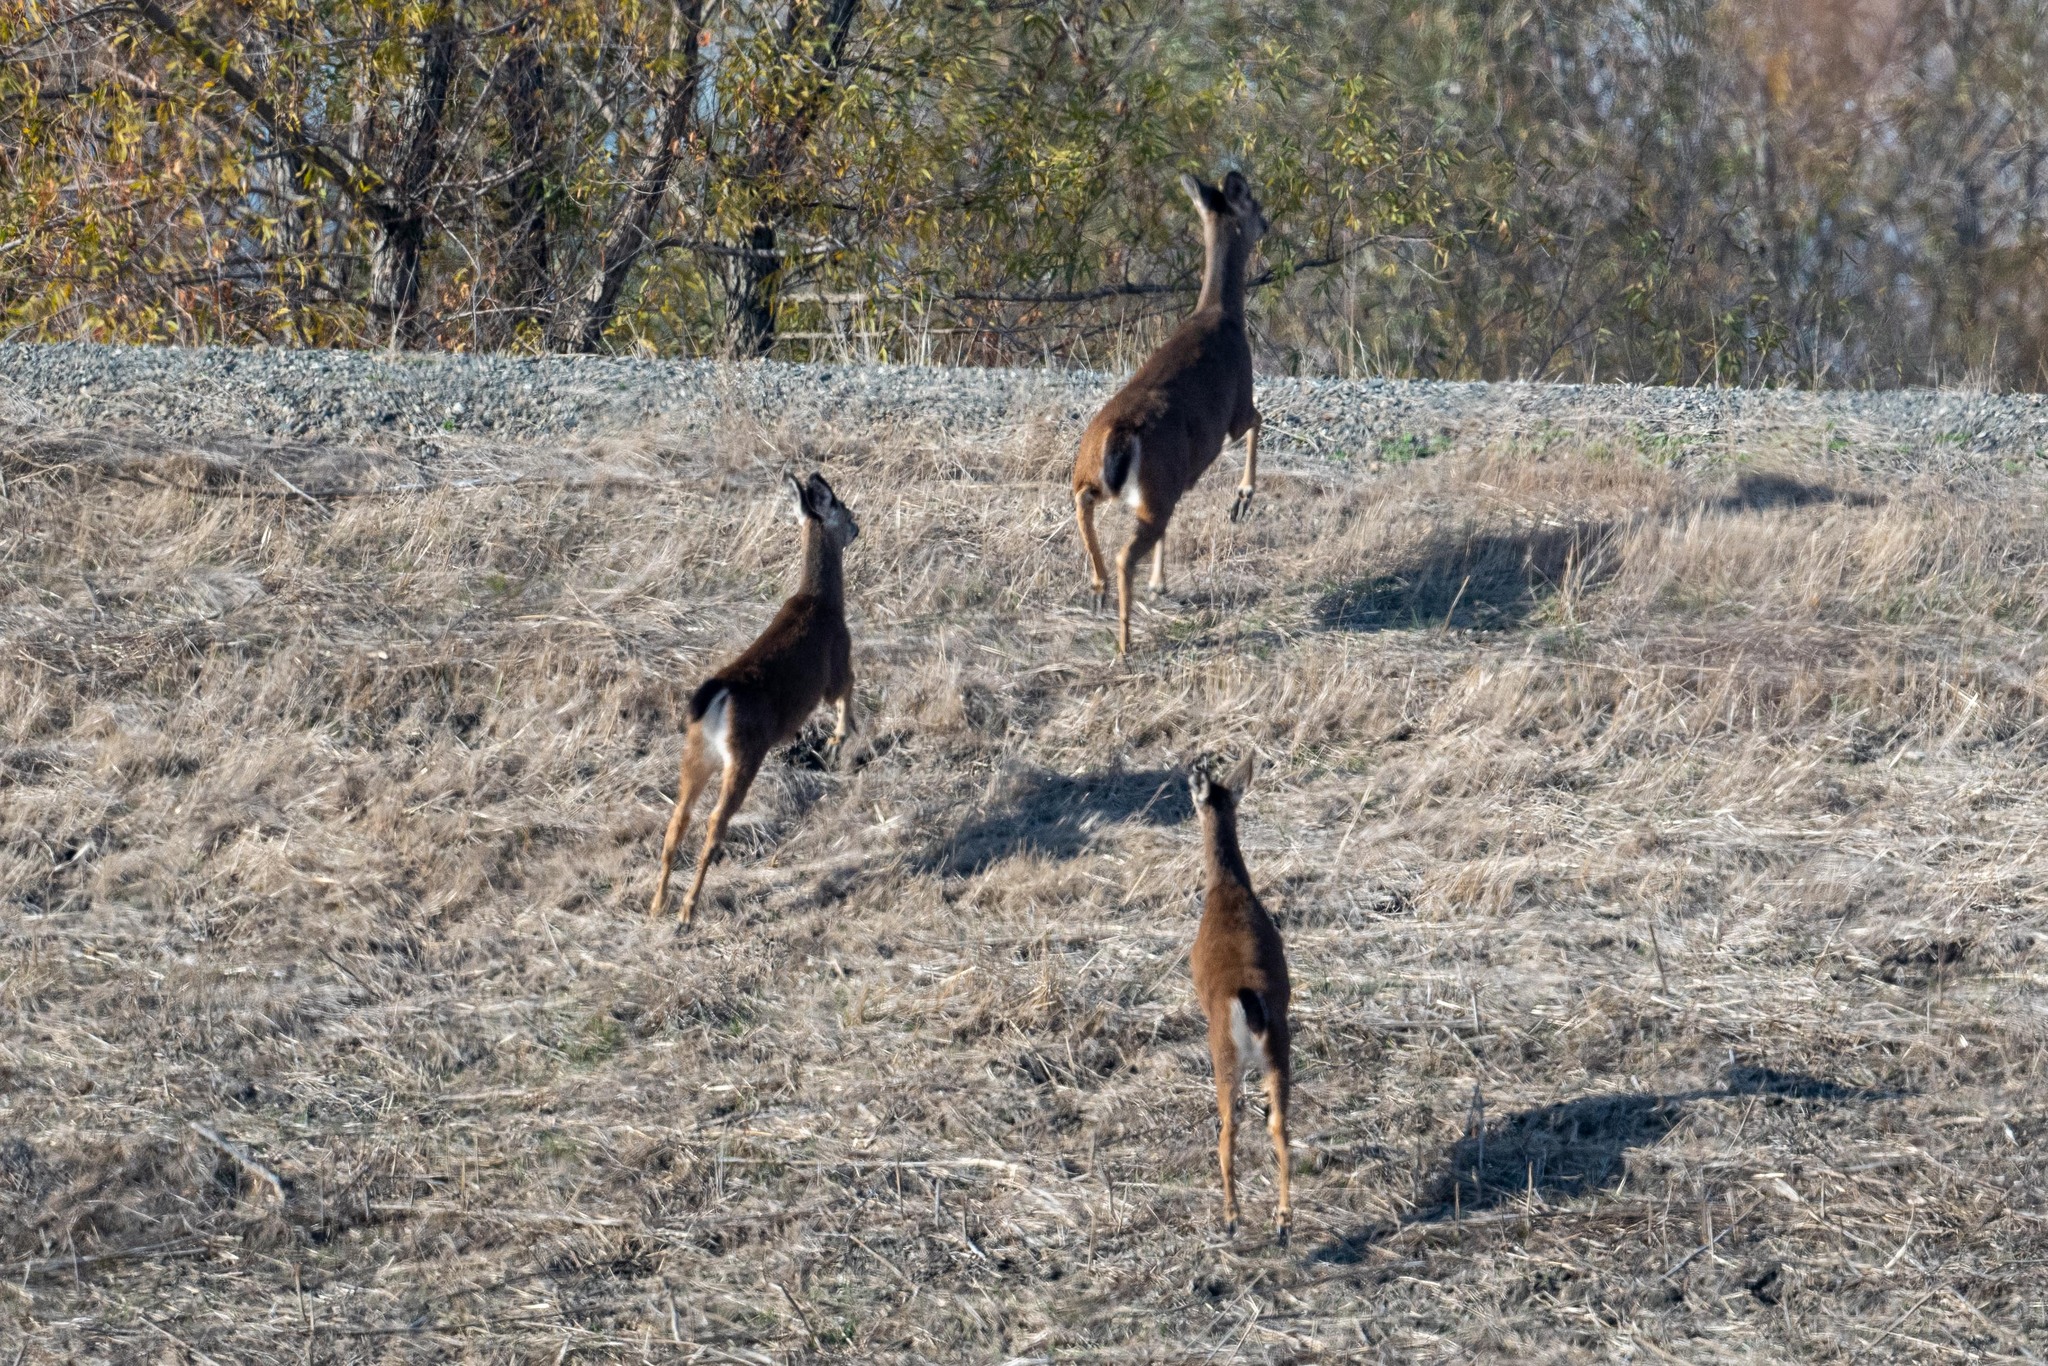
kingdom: Animalia
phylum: Chordata
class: Mammalia
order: Artiodactyla
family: Cervidae
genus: Odocoileus
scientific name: Odocoileus hemionus
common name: Mule deer
